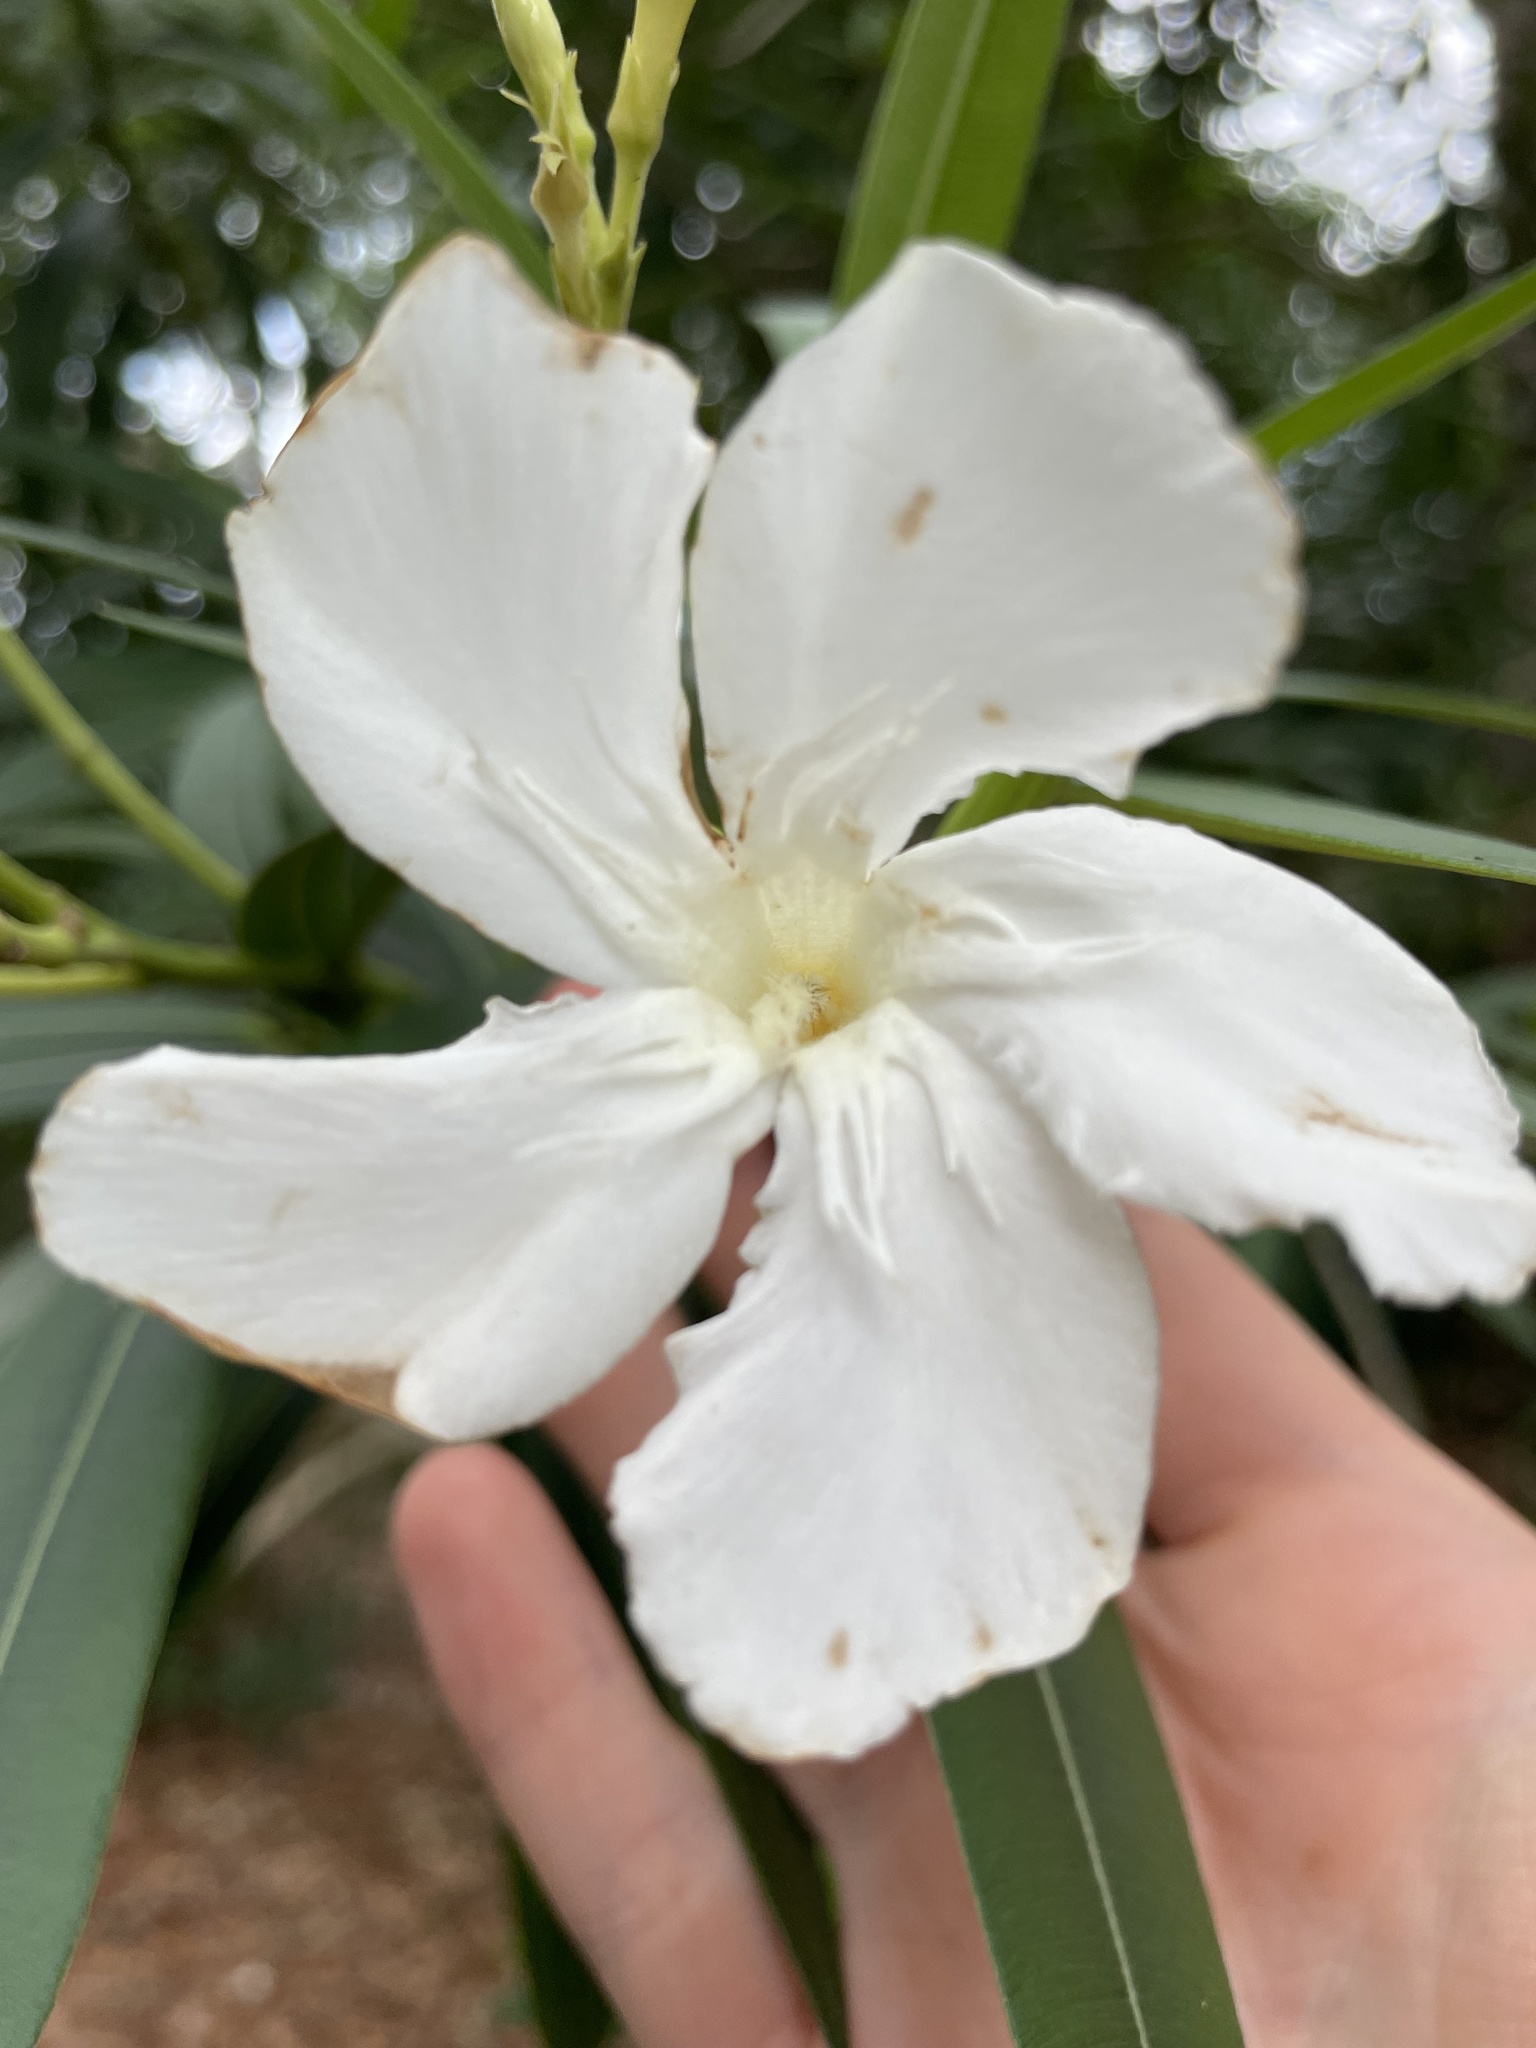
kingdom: Plantae
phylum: Tracheophyta
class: Magnoliopsida
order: Gentianales
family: Apocynaceae
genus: Nerium
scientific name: Nerium oleander
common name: Oleander
